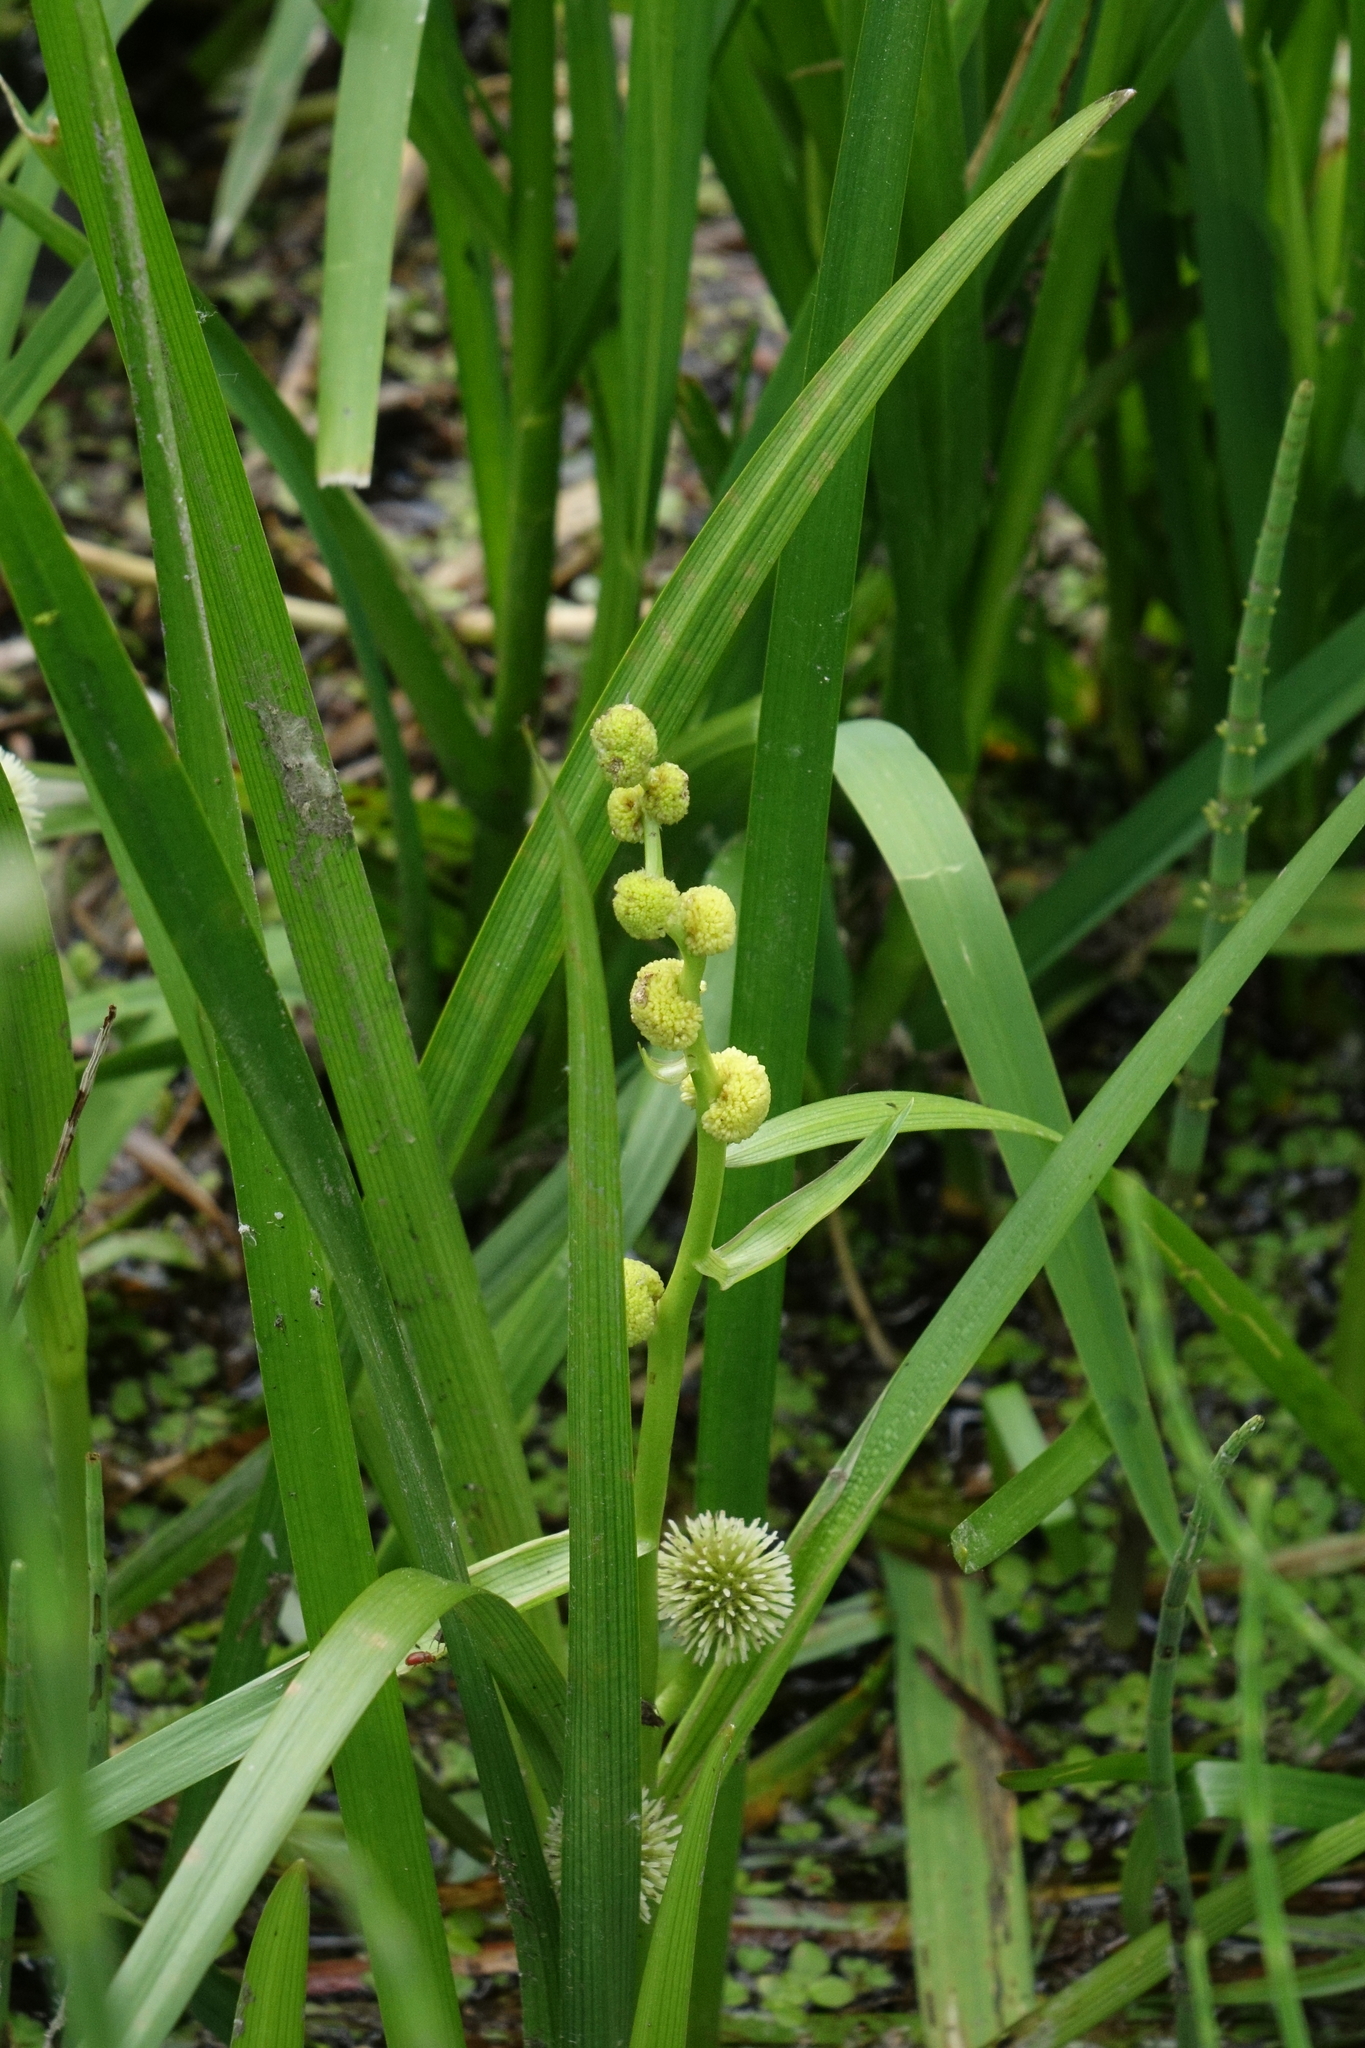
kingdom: Plantae
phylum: Tracheophyta
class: Liliopsida
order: Poales
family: Typhaceae
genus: Sparganium
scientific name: Sparganium emersum
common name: Unbranched bur-reed
